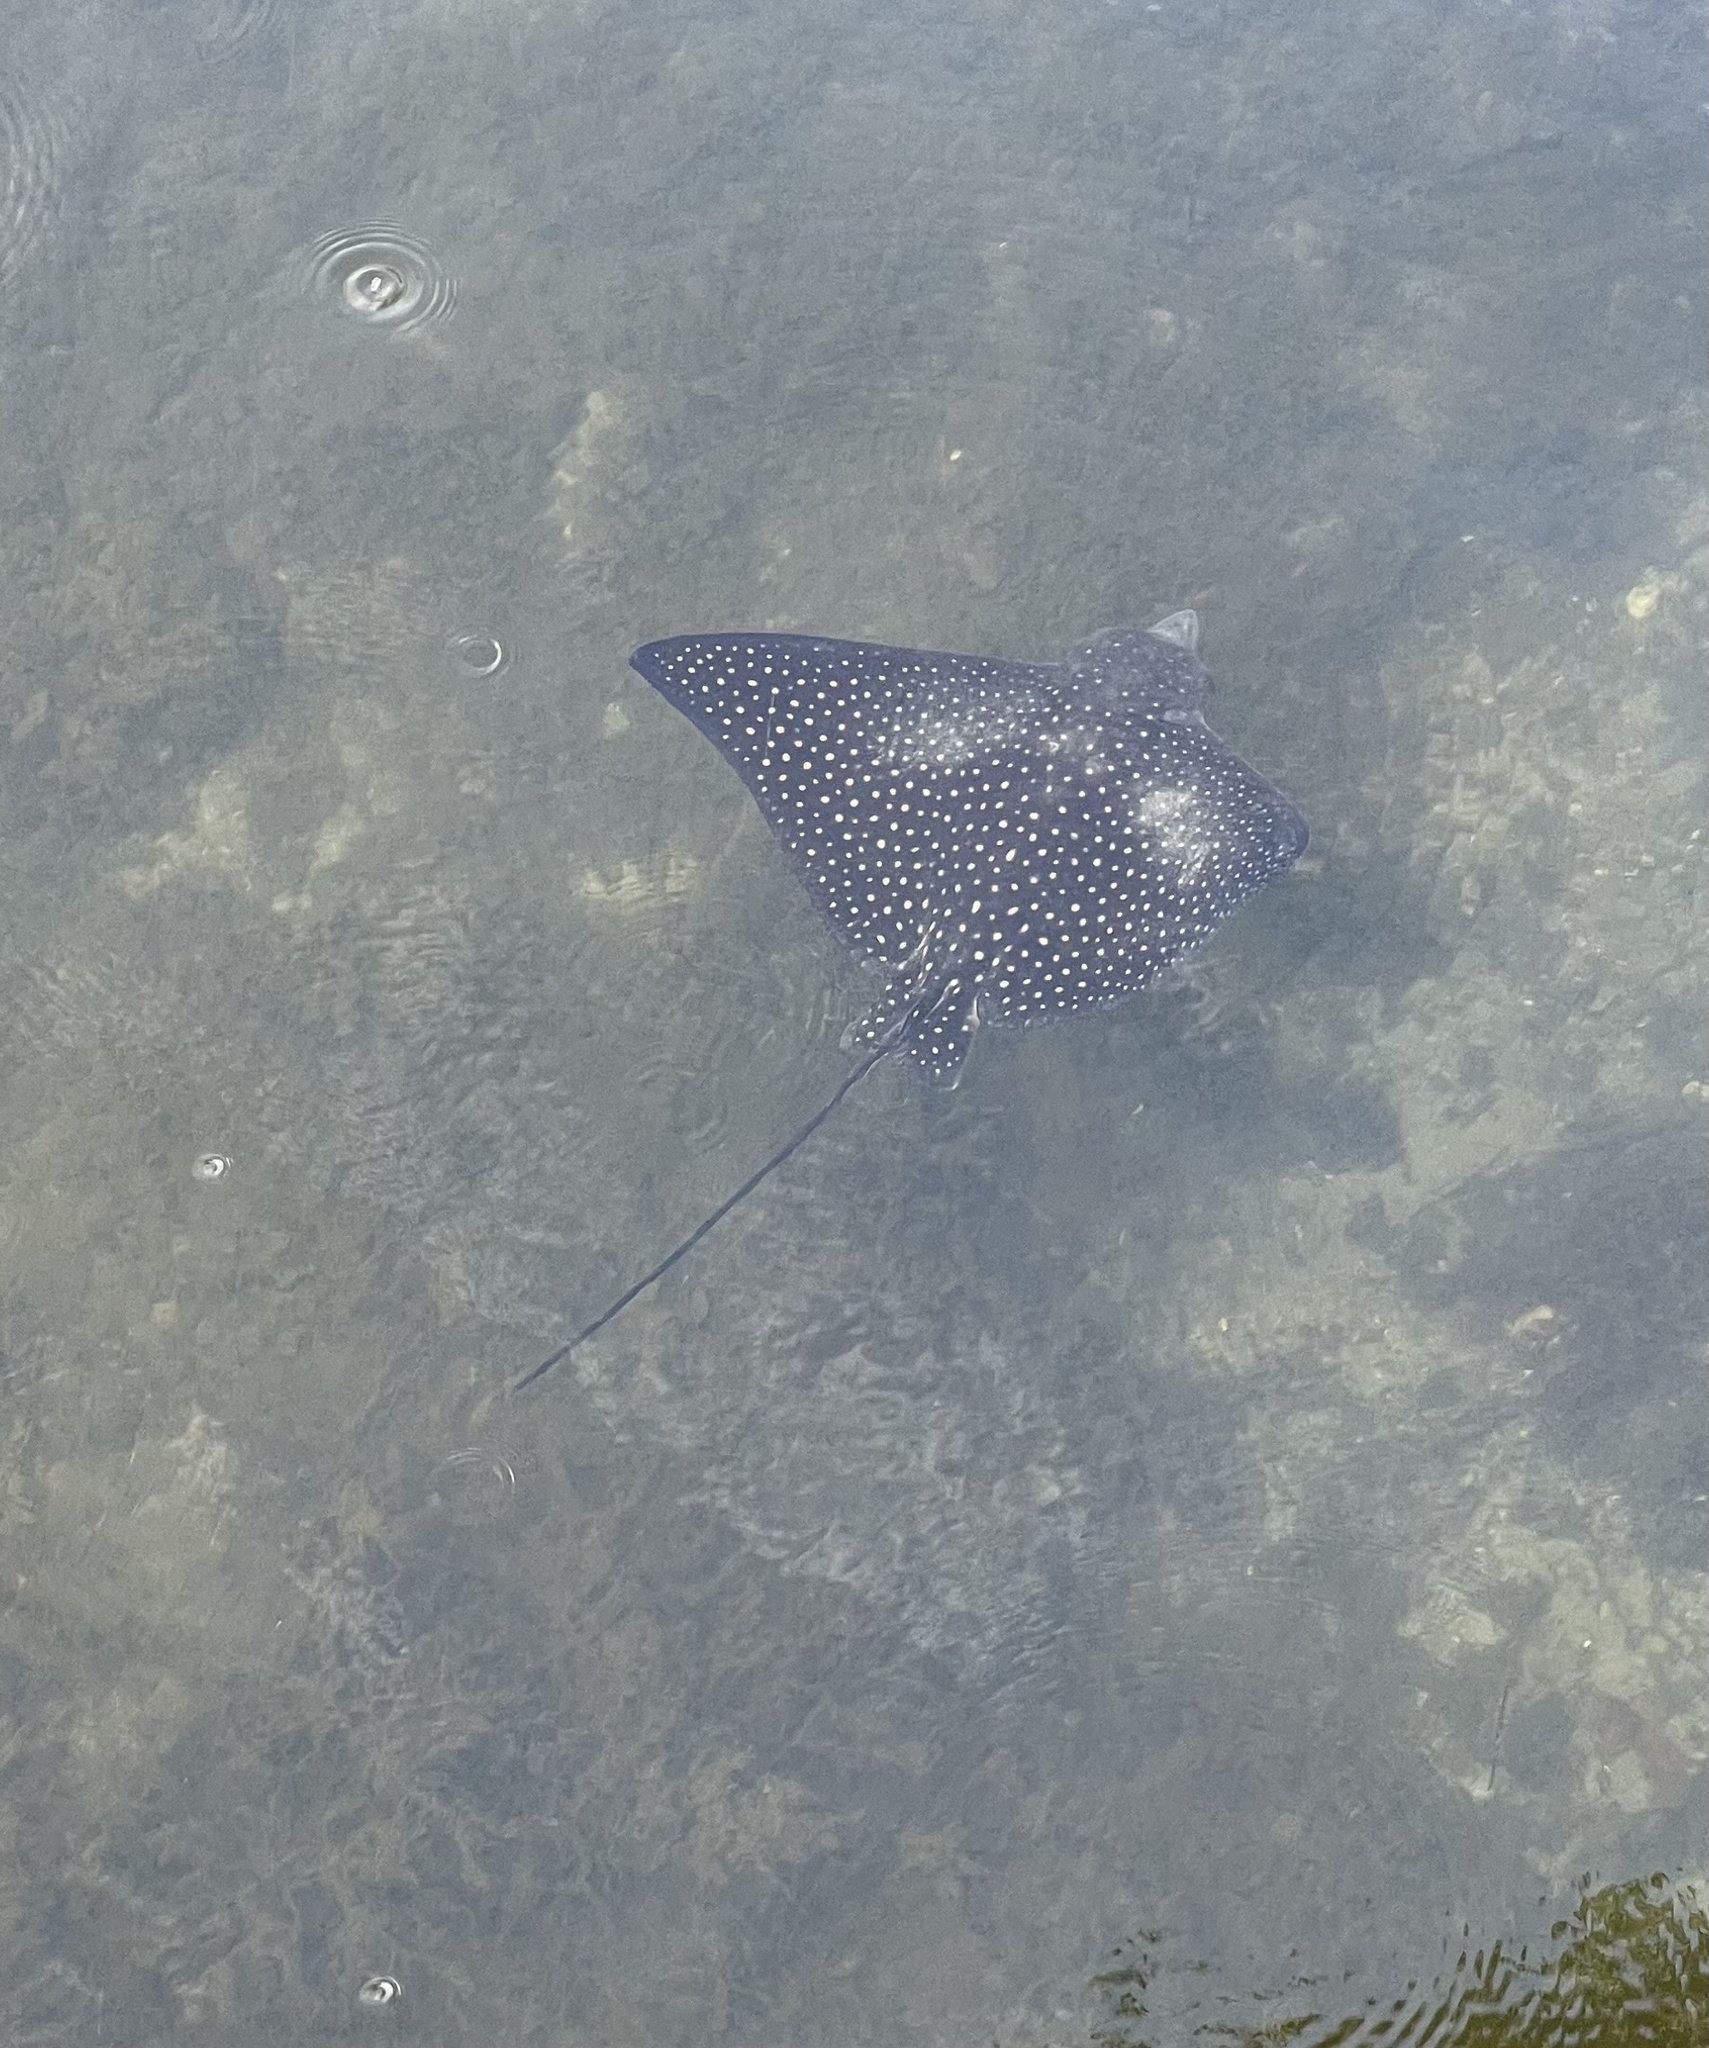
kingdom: Animalia
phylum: Chordata
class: Elasmobranchii
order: Myliobatiformes
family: Myliobatidae
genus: Aetobatus
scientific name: Aetobatus narinari
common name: Spotted eagle ray
